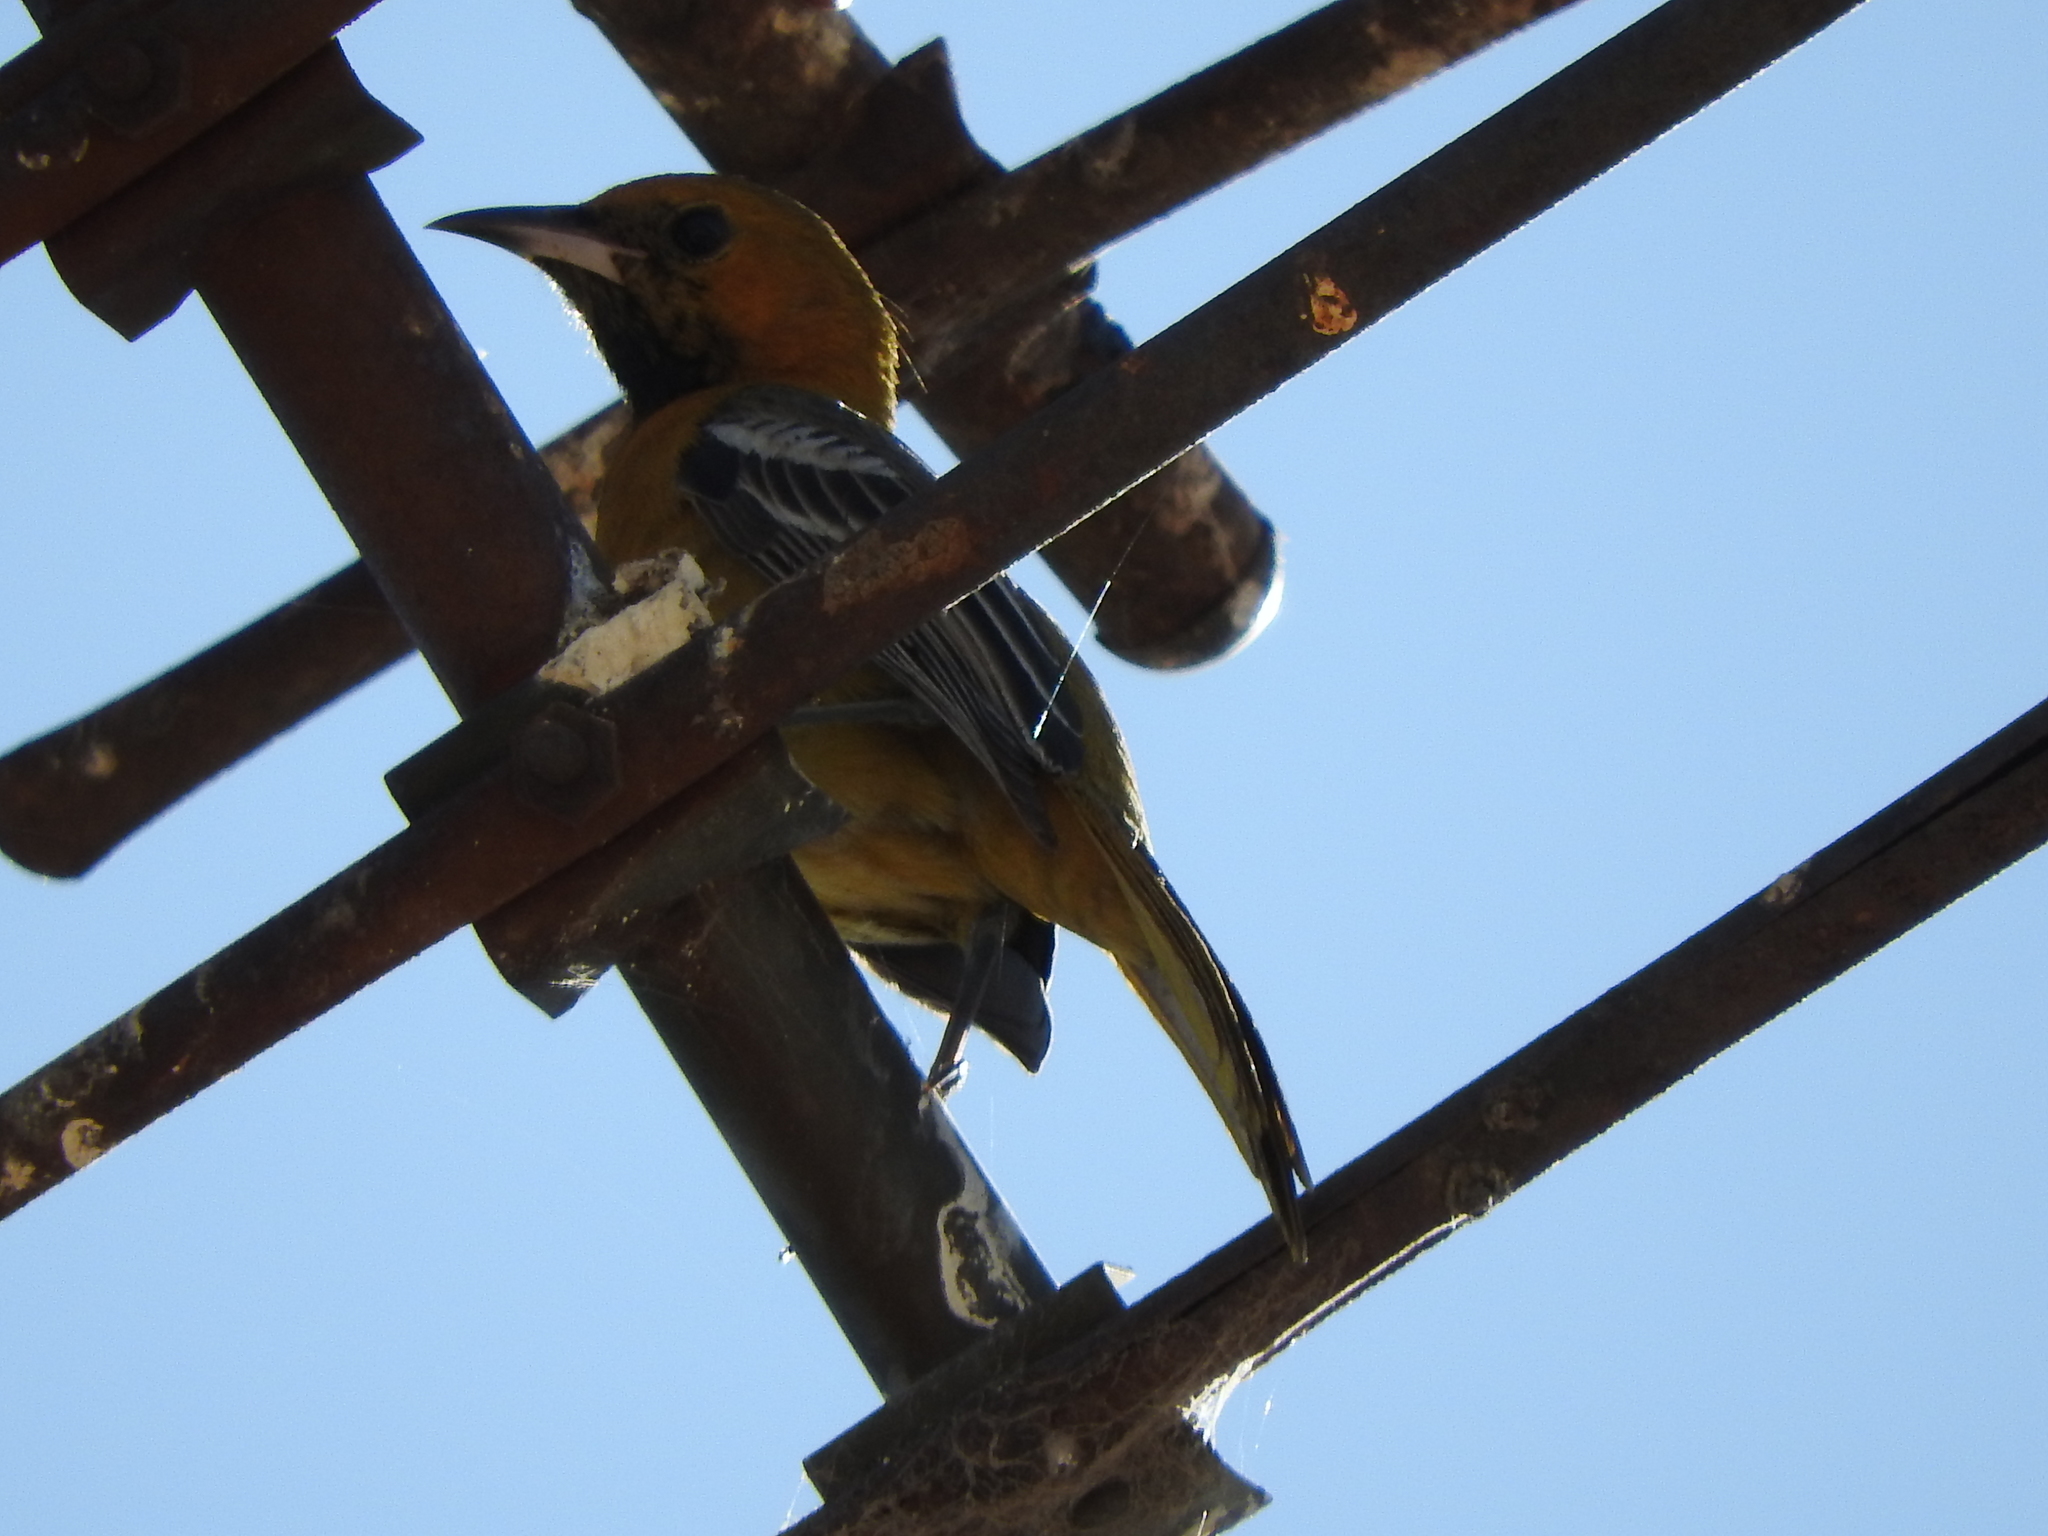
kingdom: Animalia
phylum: Chordata
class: Aves
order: Passeriformes
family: Icteridae
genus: Icterus
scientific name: Icterus cucullatus
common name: Hooded oriole
